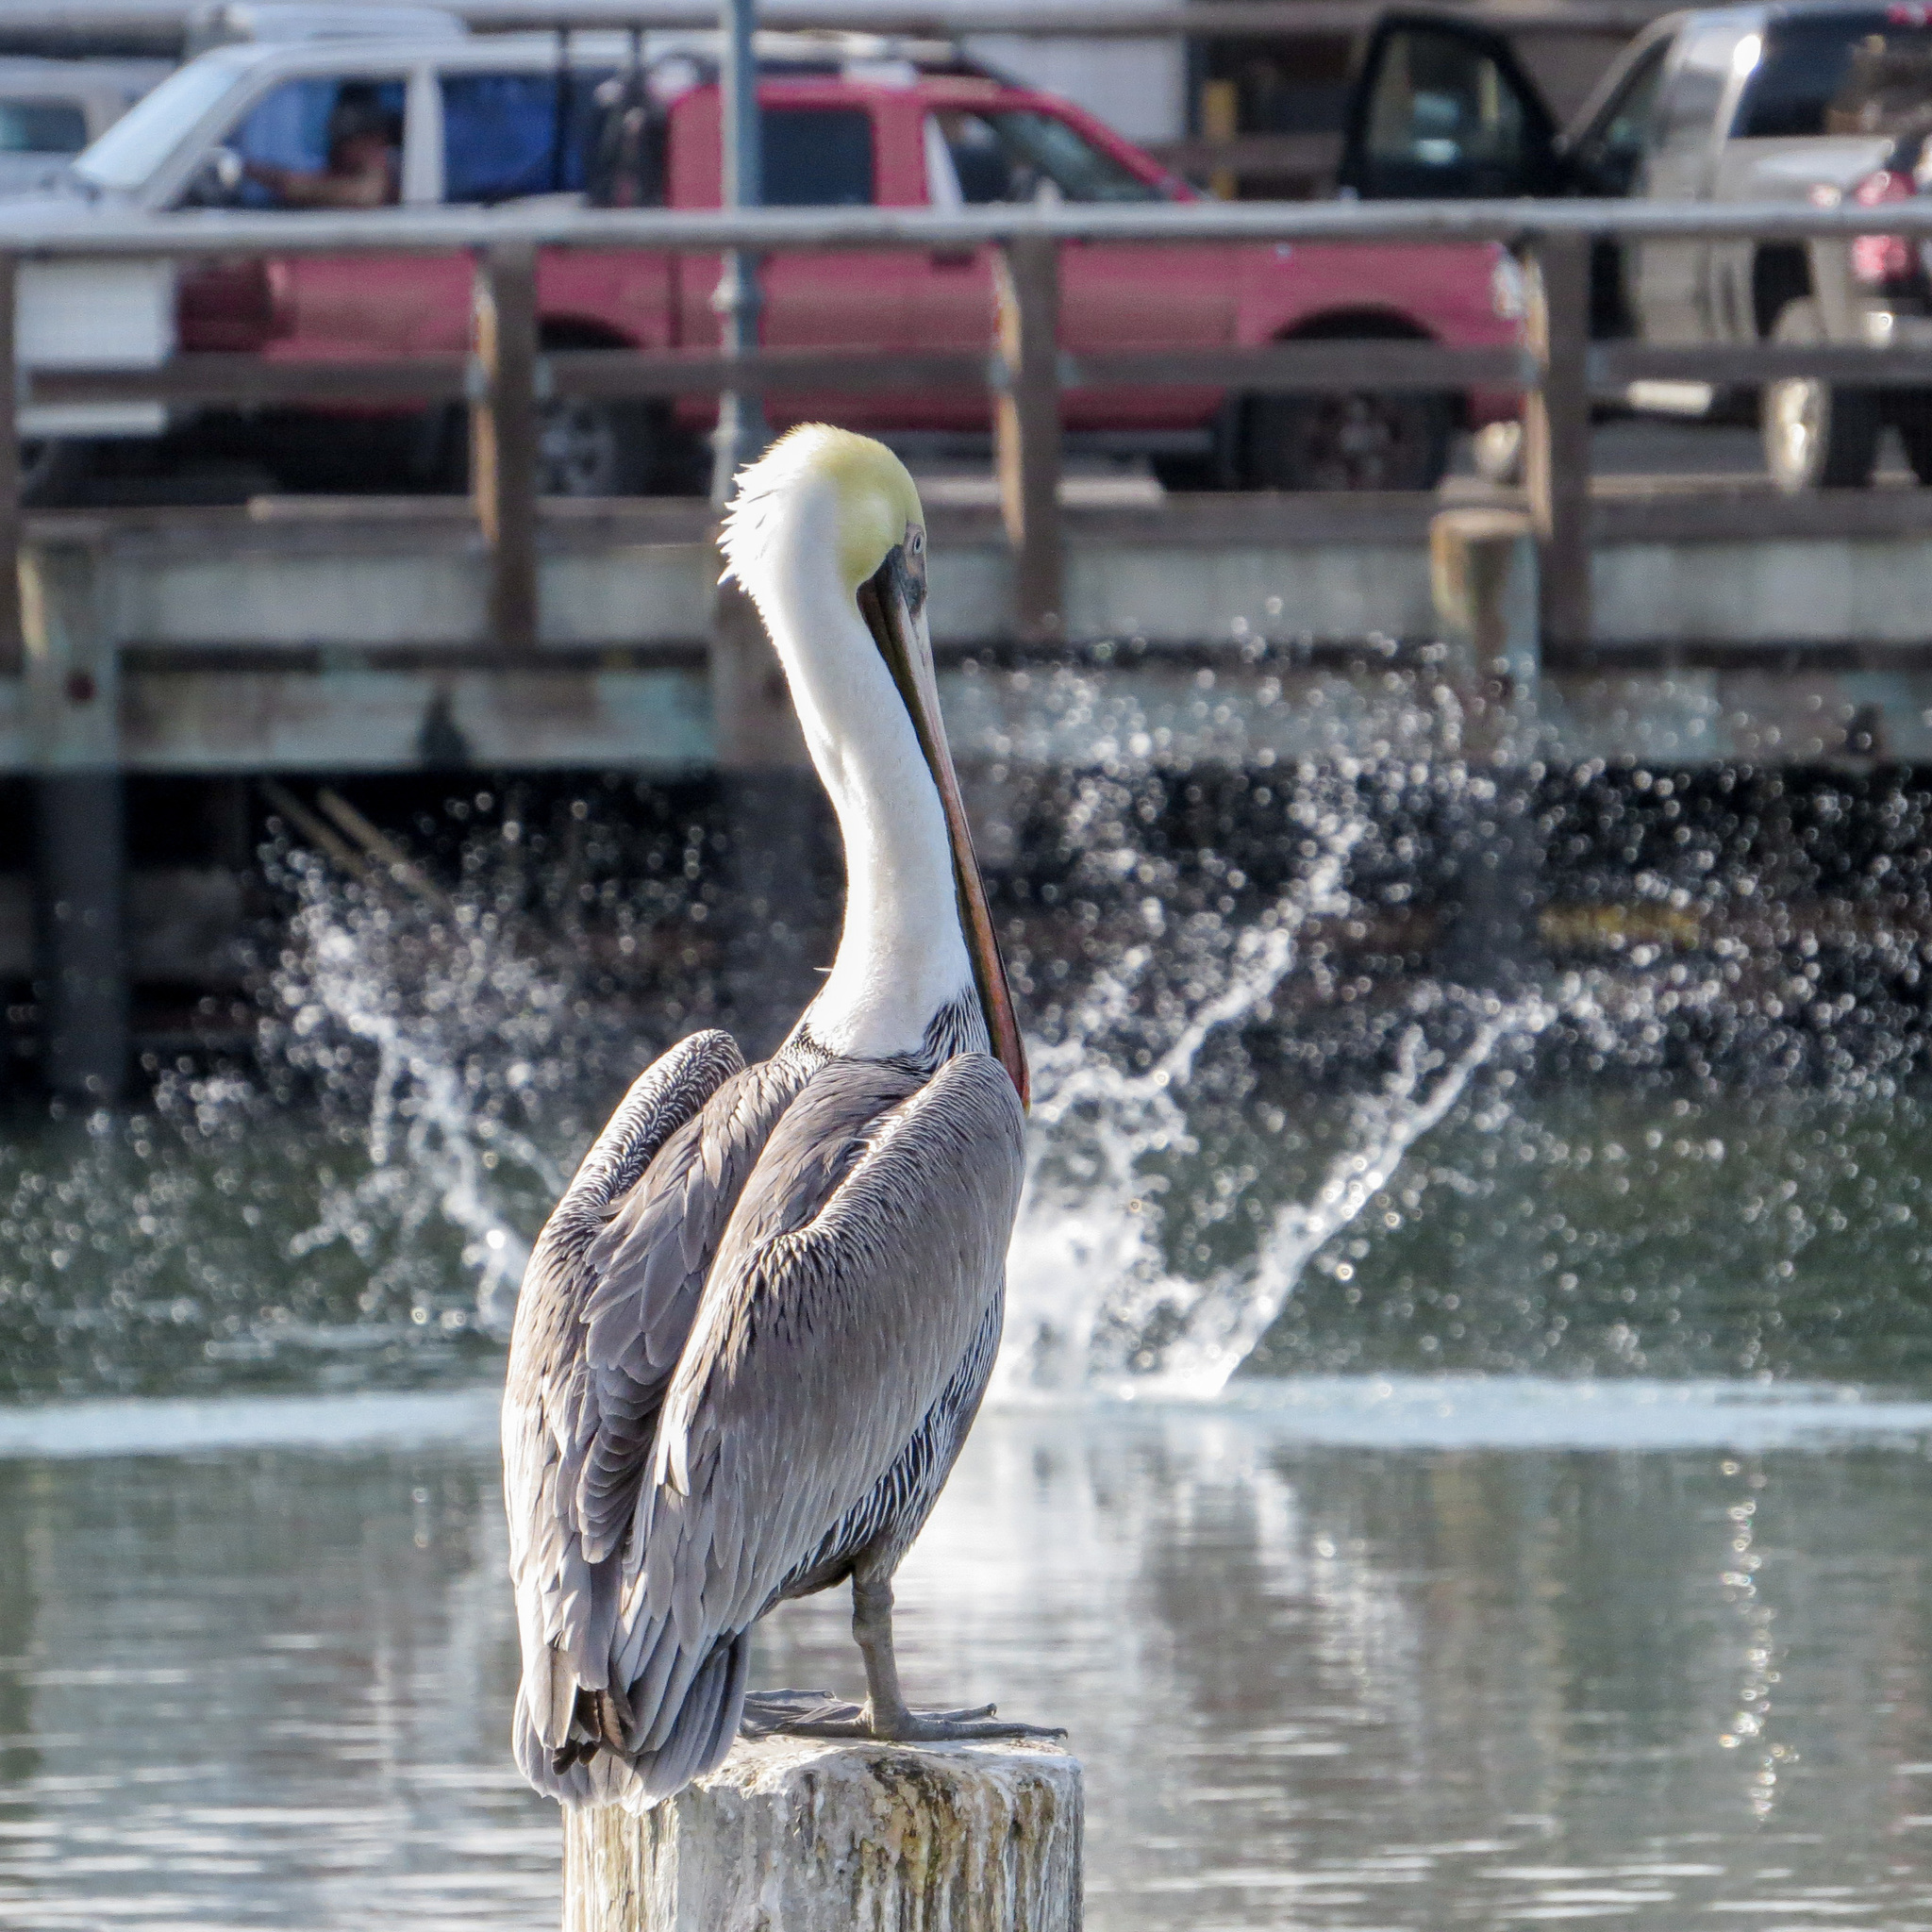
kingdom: Animalia
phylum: Chordata
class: Aves
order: Pelecaniformes
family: Pelecanidae
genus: Pelecanus
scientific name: Pelecanus occidentalis
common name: Brown pelican
